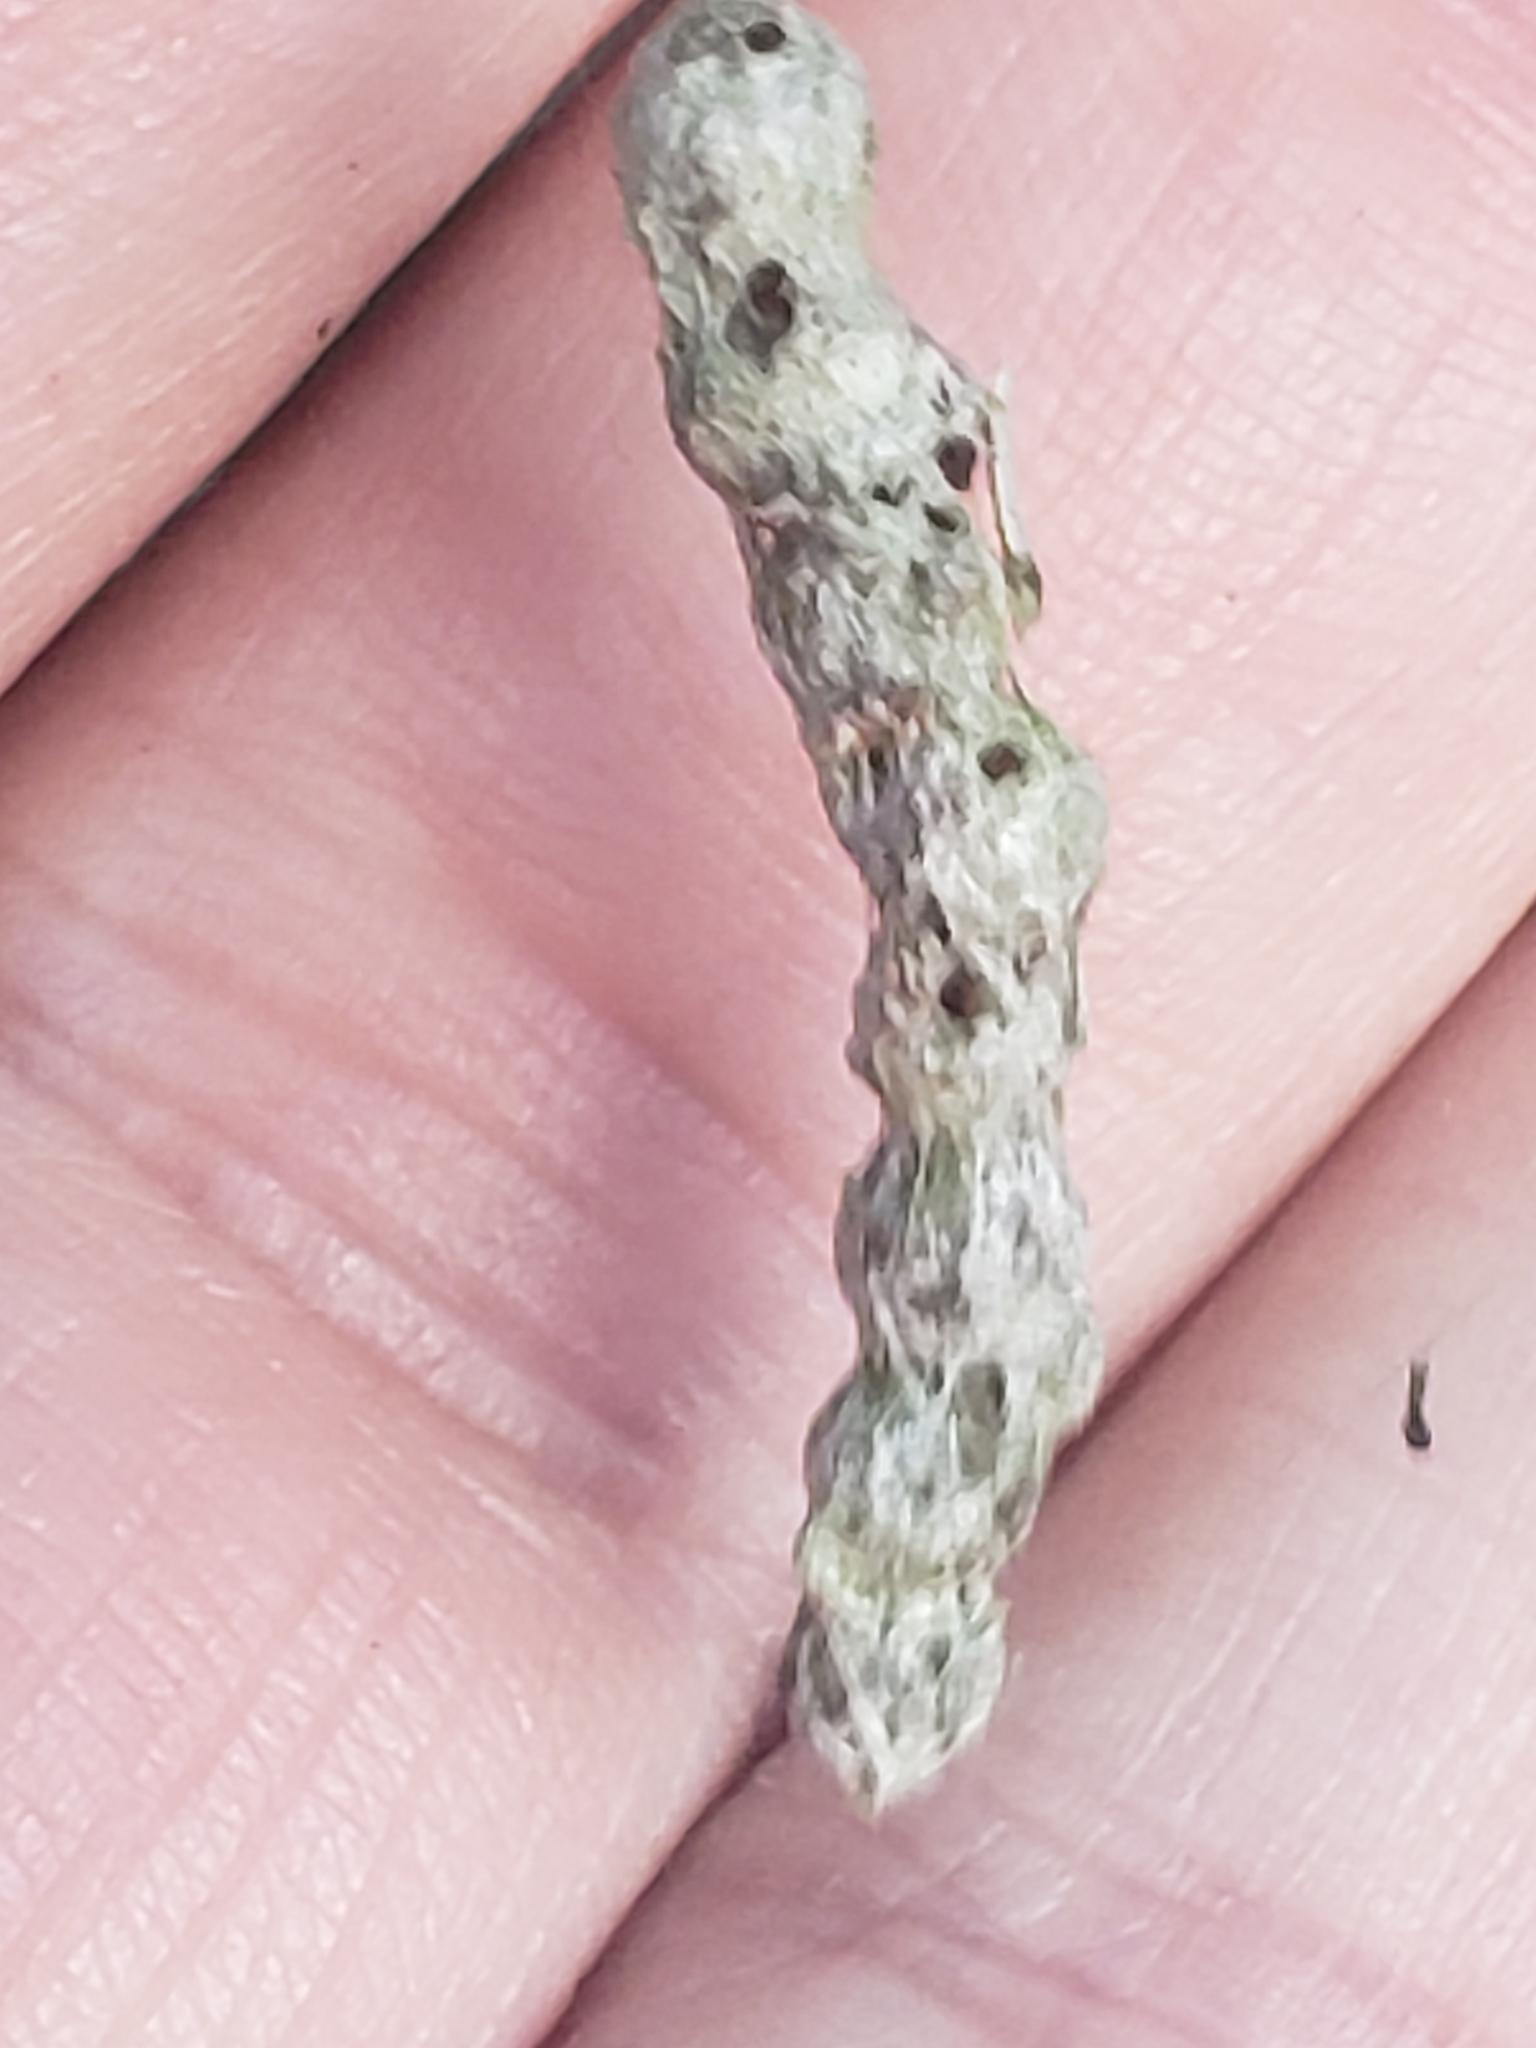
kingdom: Animalia
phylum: Arthropoda
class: Arachnida
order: Araneae
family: Araneidae
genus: Mecynogea
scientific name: Mecynogea lemniscata
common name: Orb weavers
